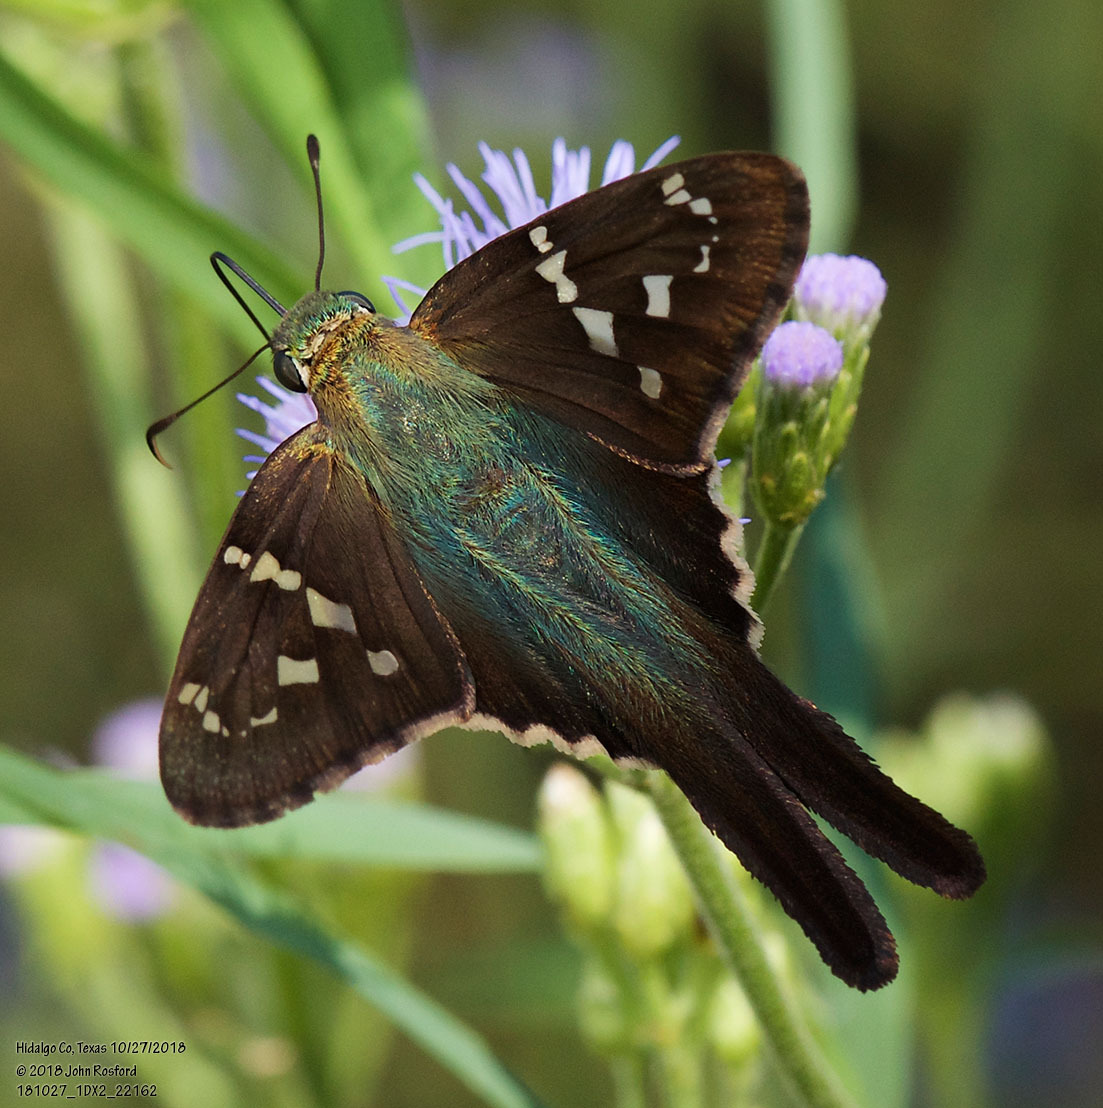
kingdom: Animalia
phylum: Arthropoda
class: Insecta
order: Lepidoptera
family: Hesperiidae
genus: Urbanus
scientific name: Urbanus proteus
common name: Long-tailed skipper
